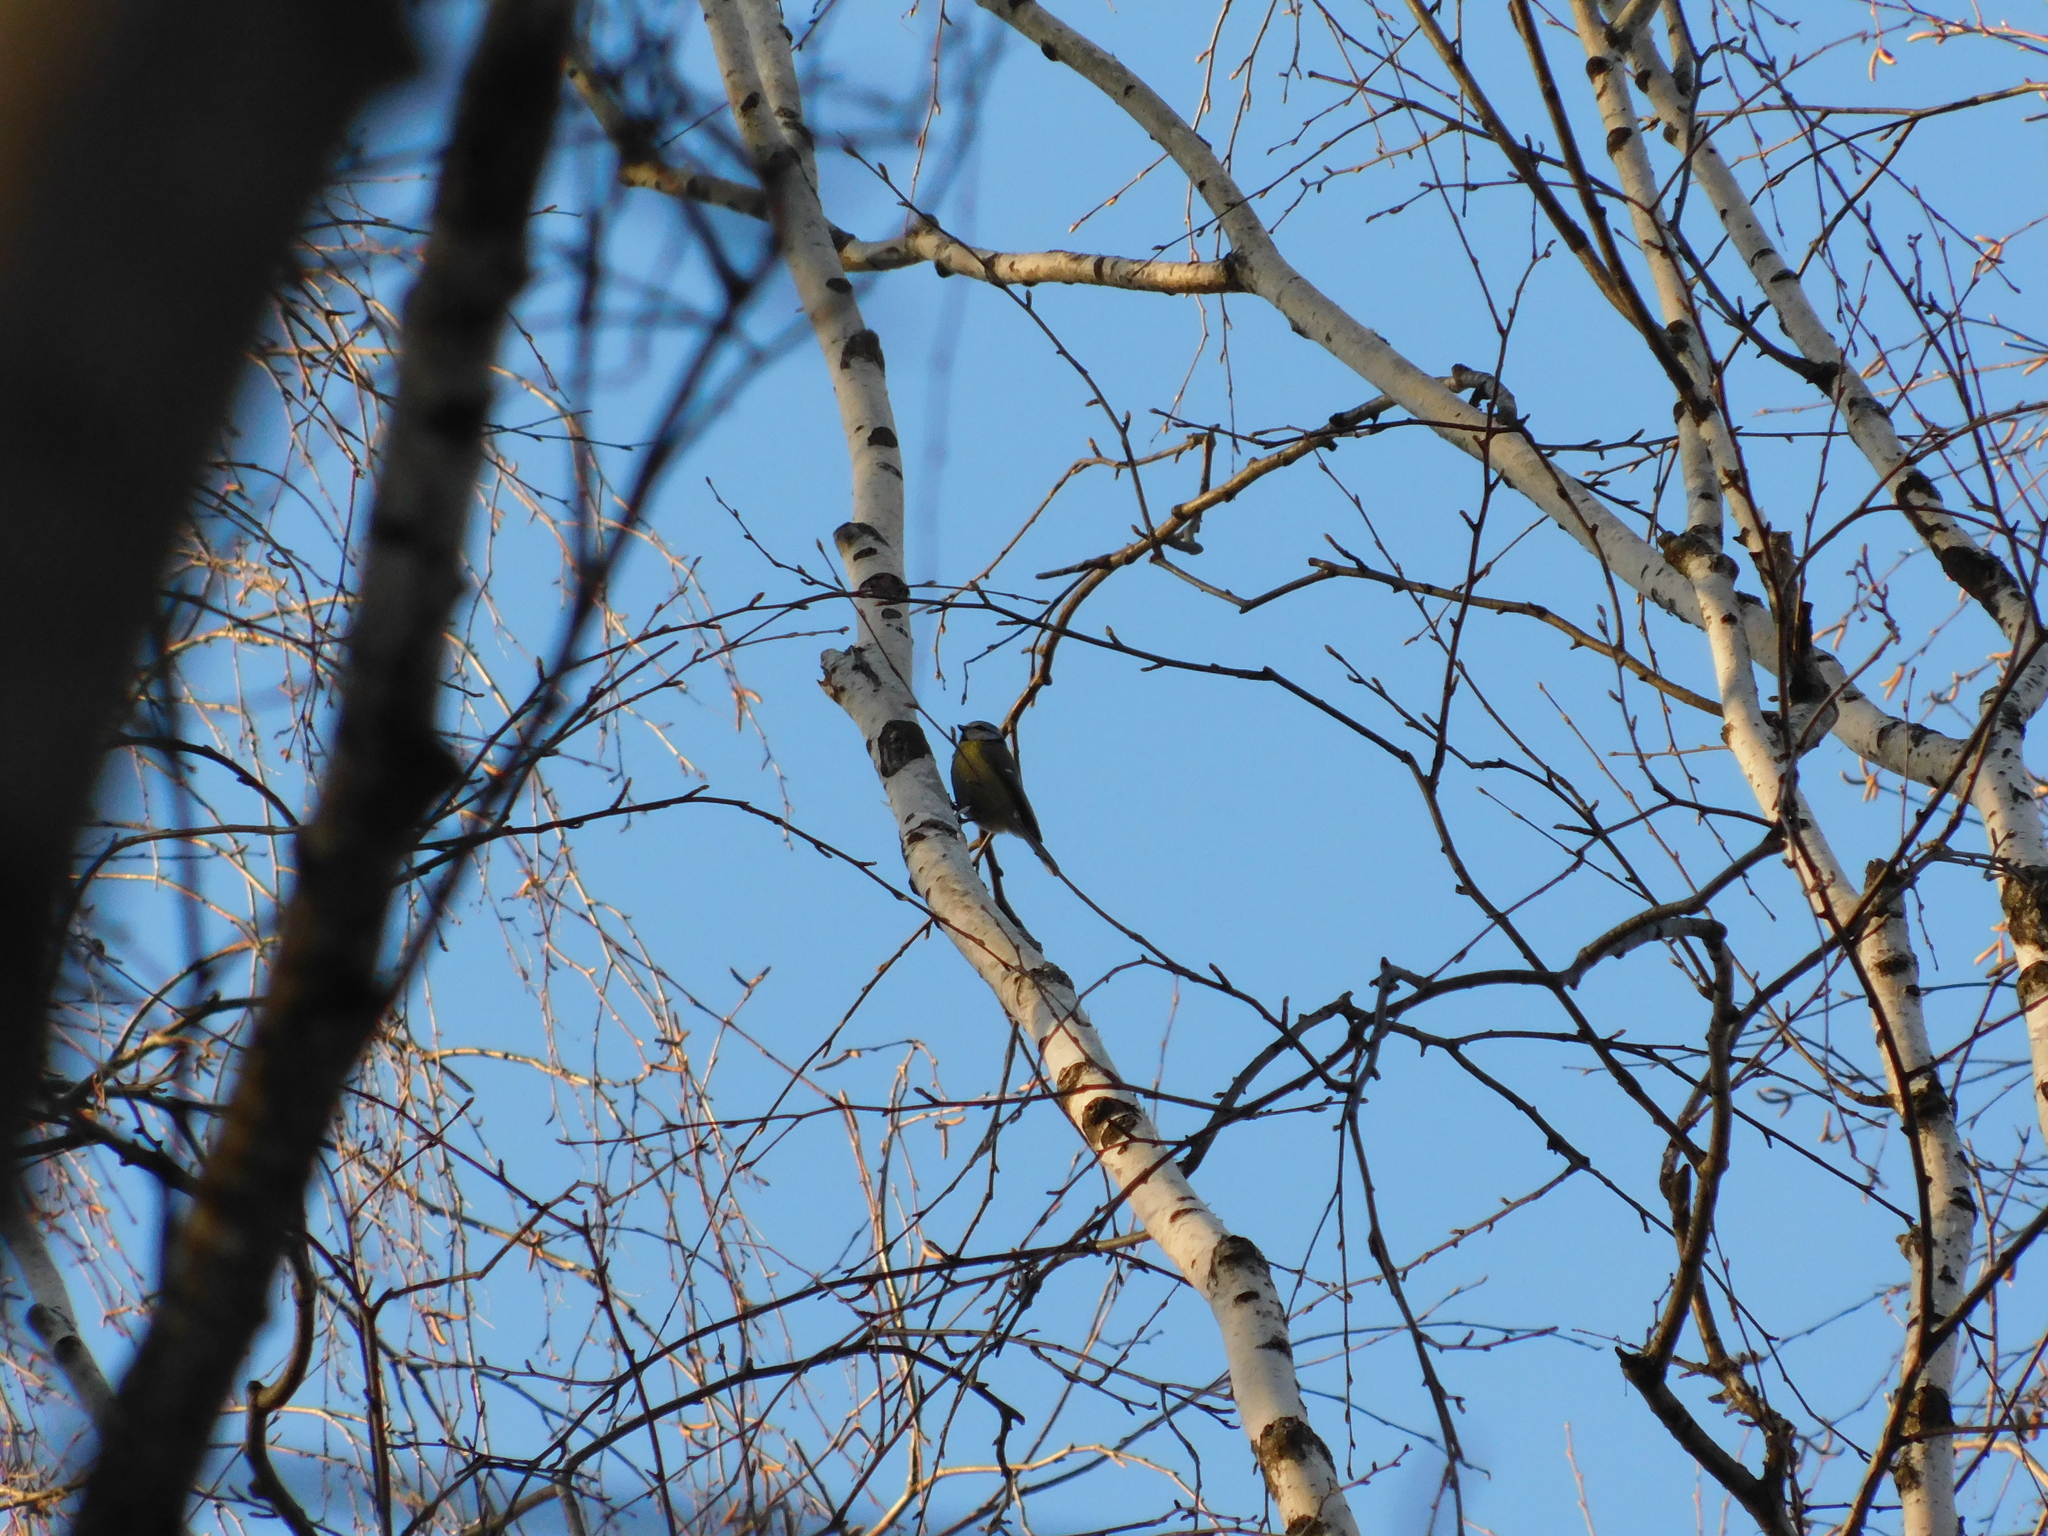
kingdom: Animalia
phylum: Chordata
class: Aves
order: Passeriformes
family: Paridae
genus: Cyanistes
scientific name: Cyanistes caeruleus
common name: Eurasian blue tit
